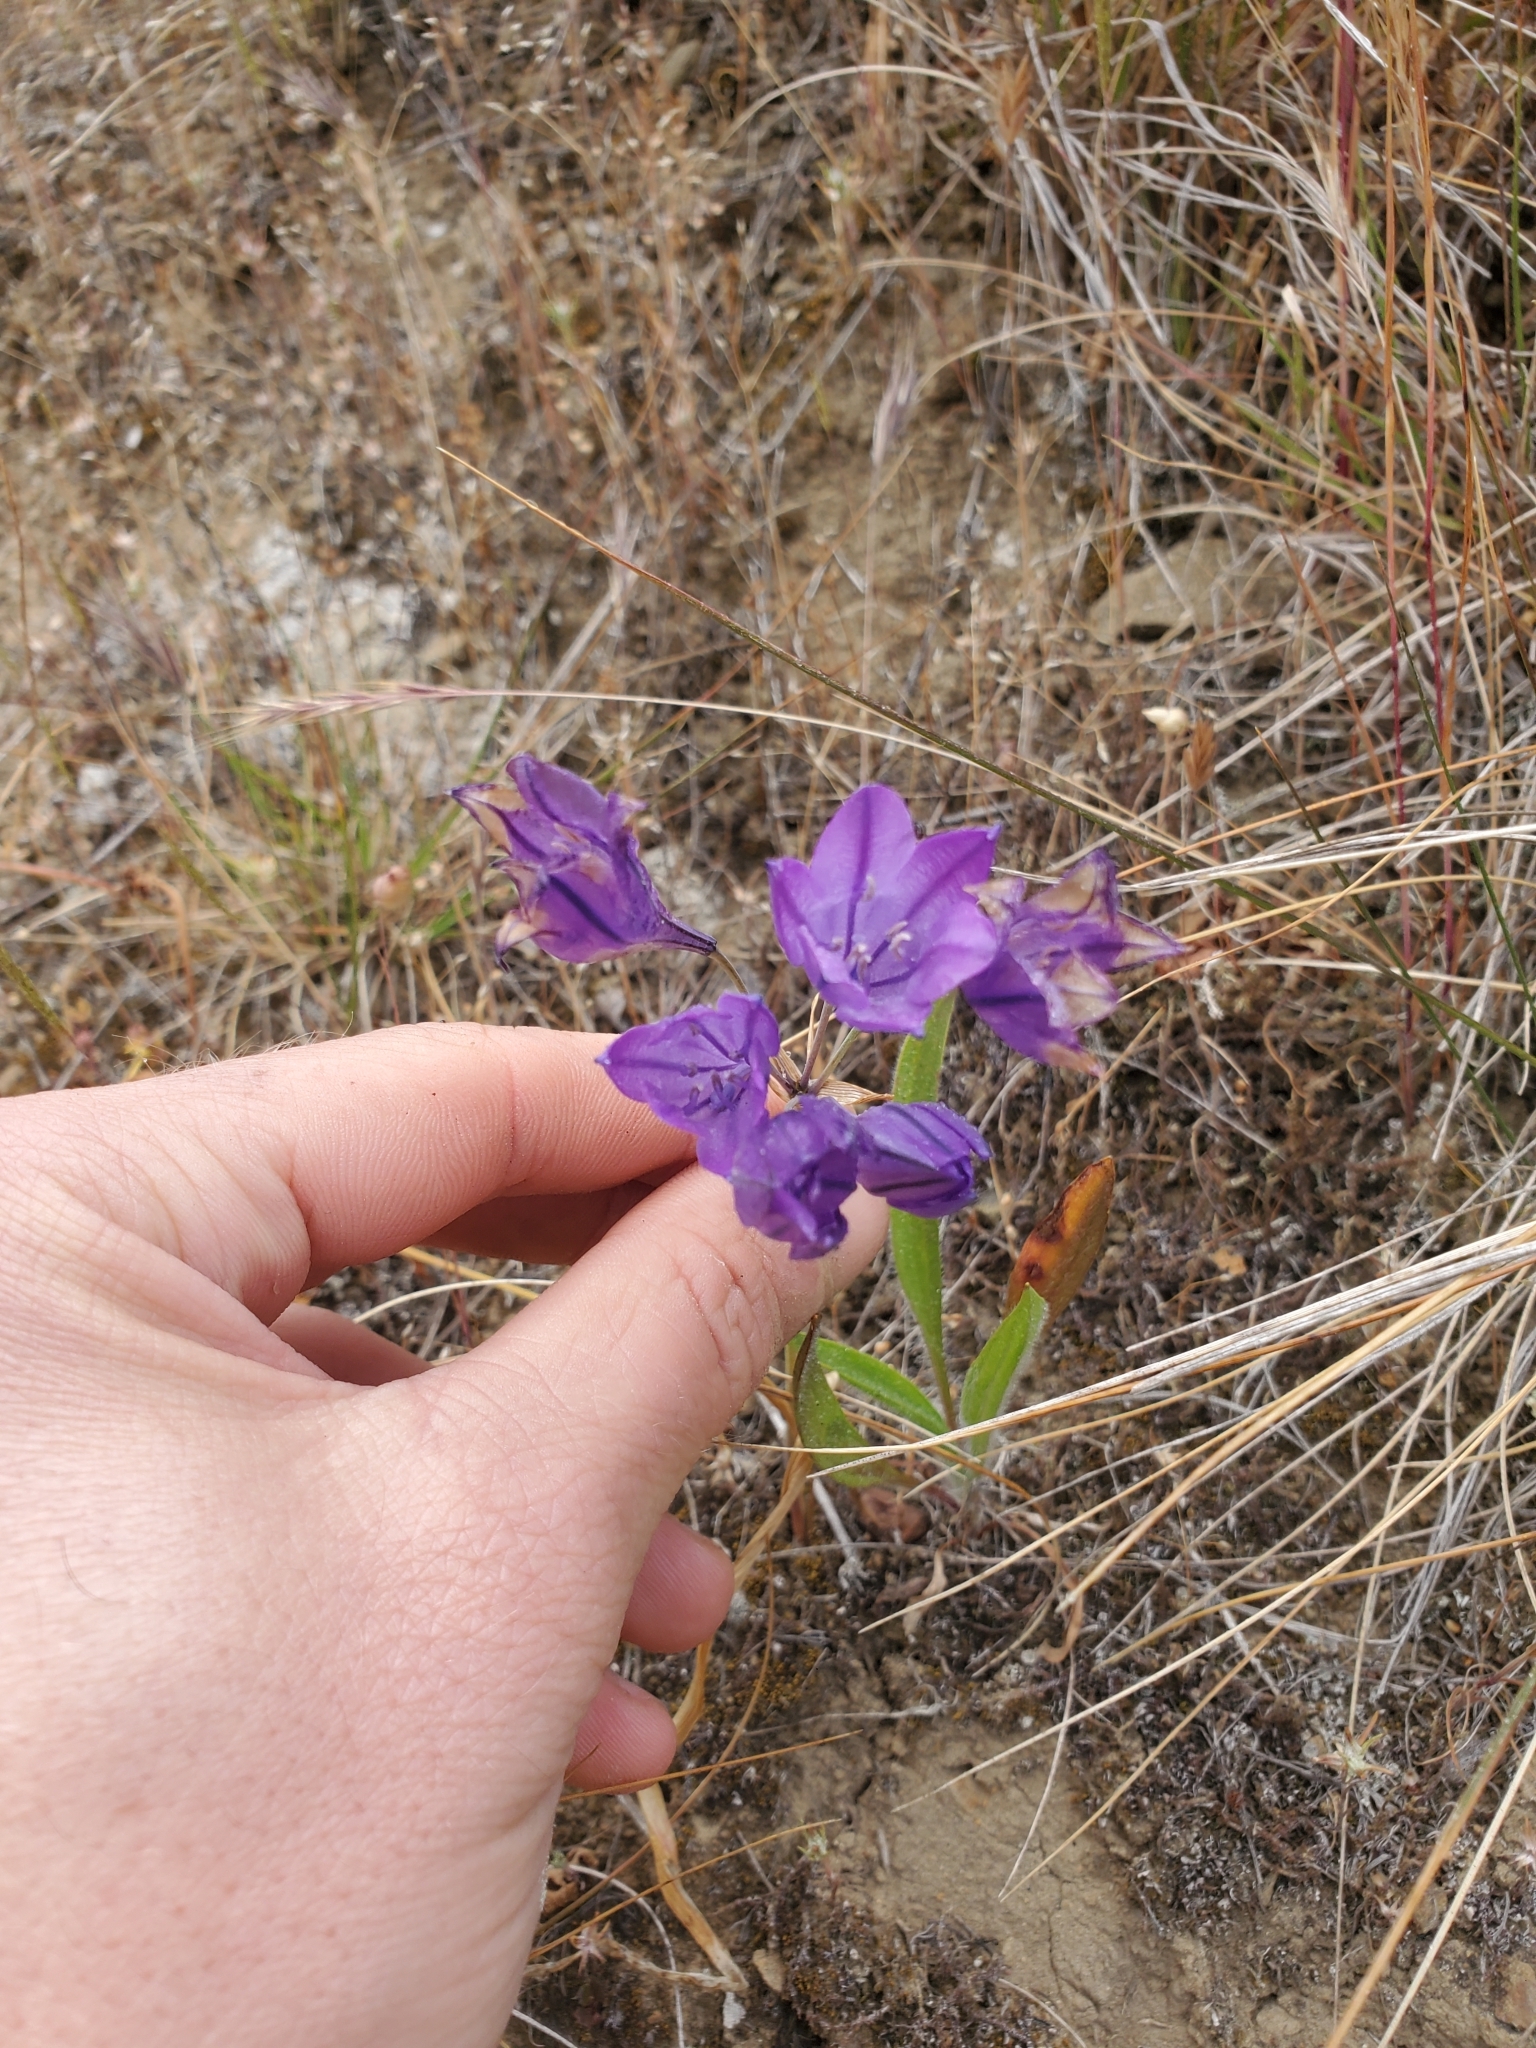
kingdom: Plantae
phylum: Tracheophyta
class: Liliopsida
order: Asparagales
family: Asparagaceae
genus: Triteleia
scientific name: Triteleia laxa
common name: Triplet-lily
